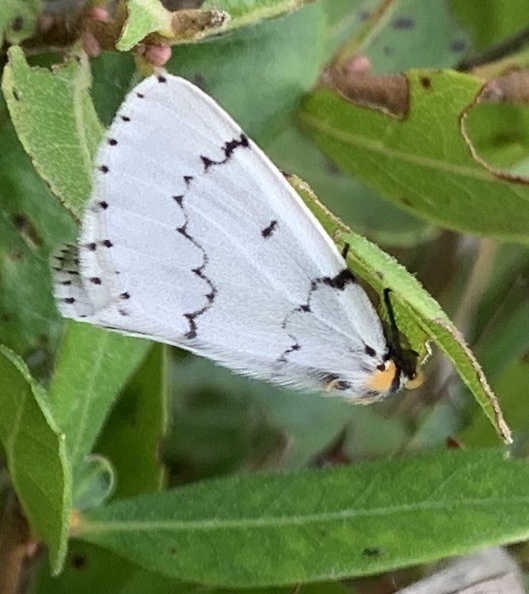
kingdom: Animalia
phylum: Arthropoda
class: Insecta
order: Lepidoptera
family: Geometridae
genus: Cingilia
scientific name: Cingilia catenaria
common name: Chain-dotted geometer
